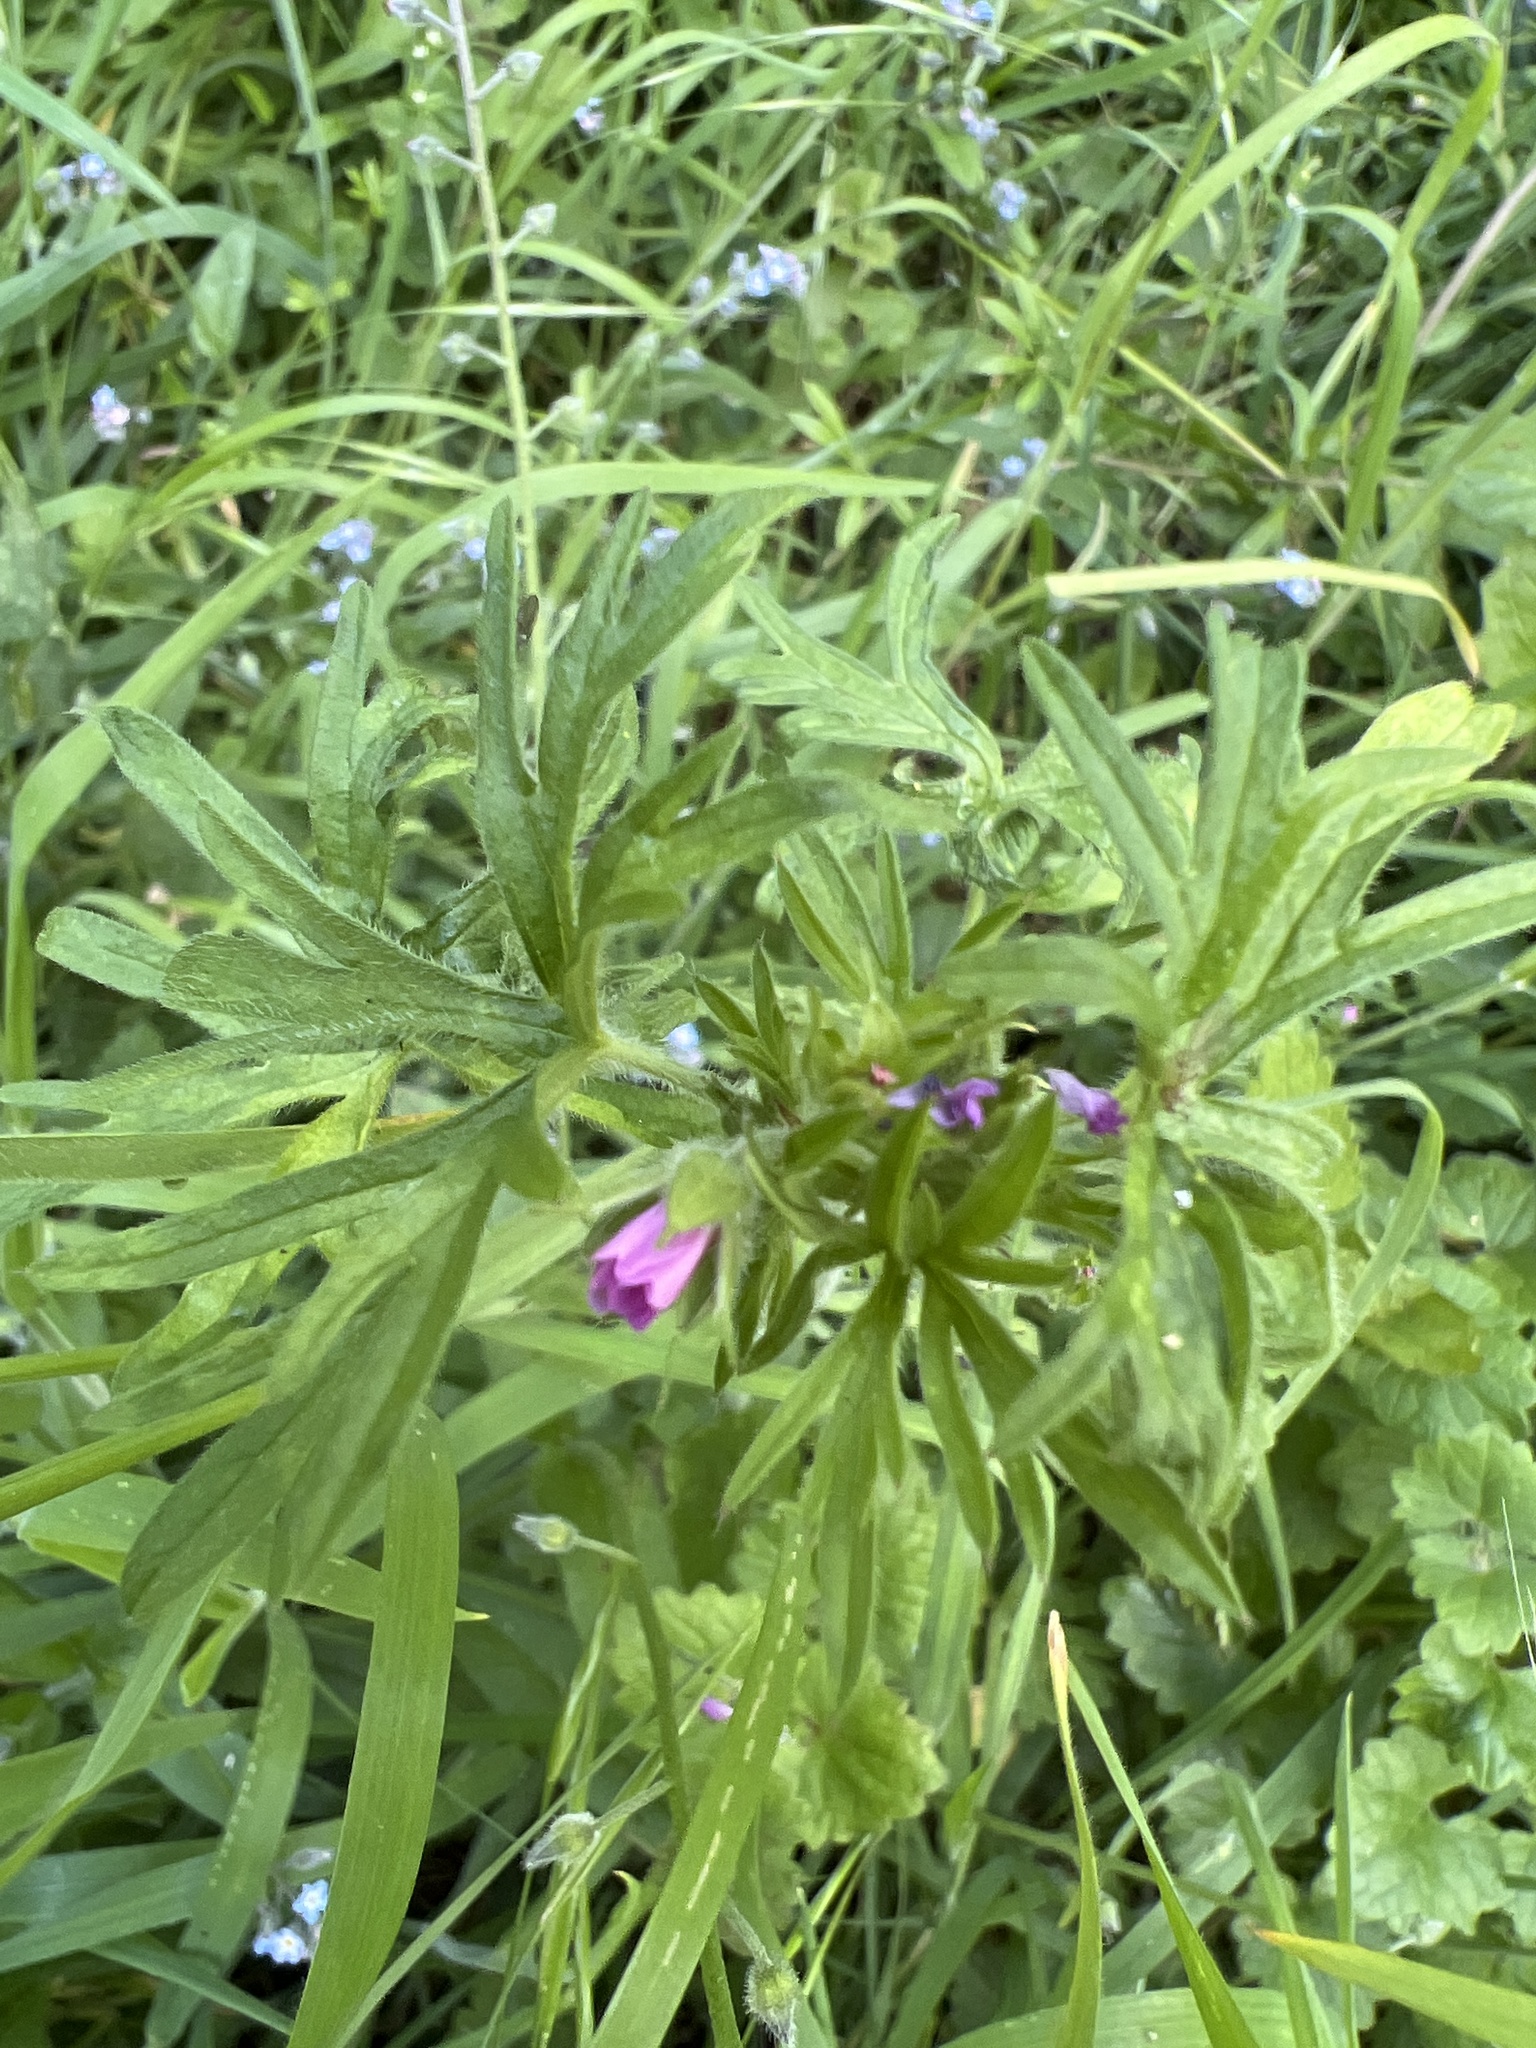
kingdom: Plantae
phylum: Tracheophyta
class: Magnoliopsida
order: Geraniales
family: Geraniaceae
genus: Geranium
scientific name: Geranium dissectum
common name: Cut-leaved crane's-bill
